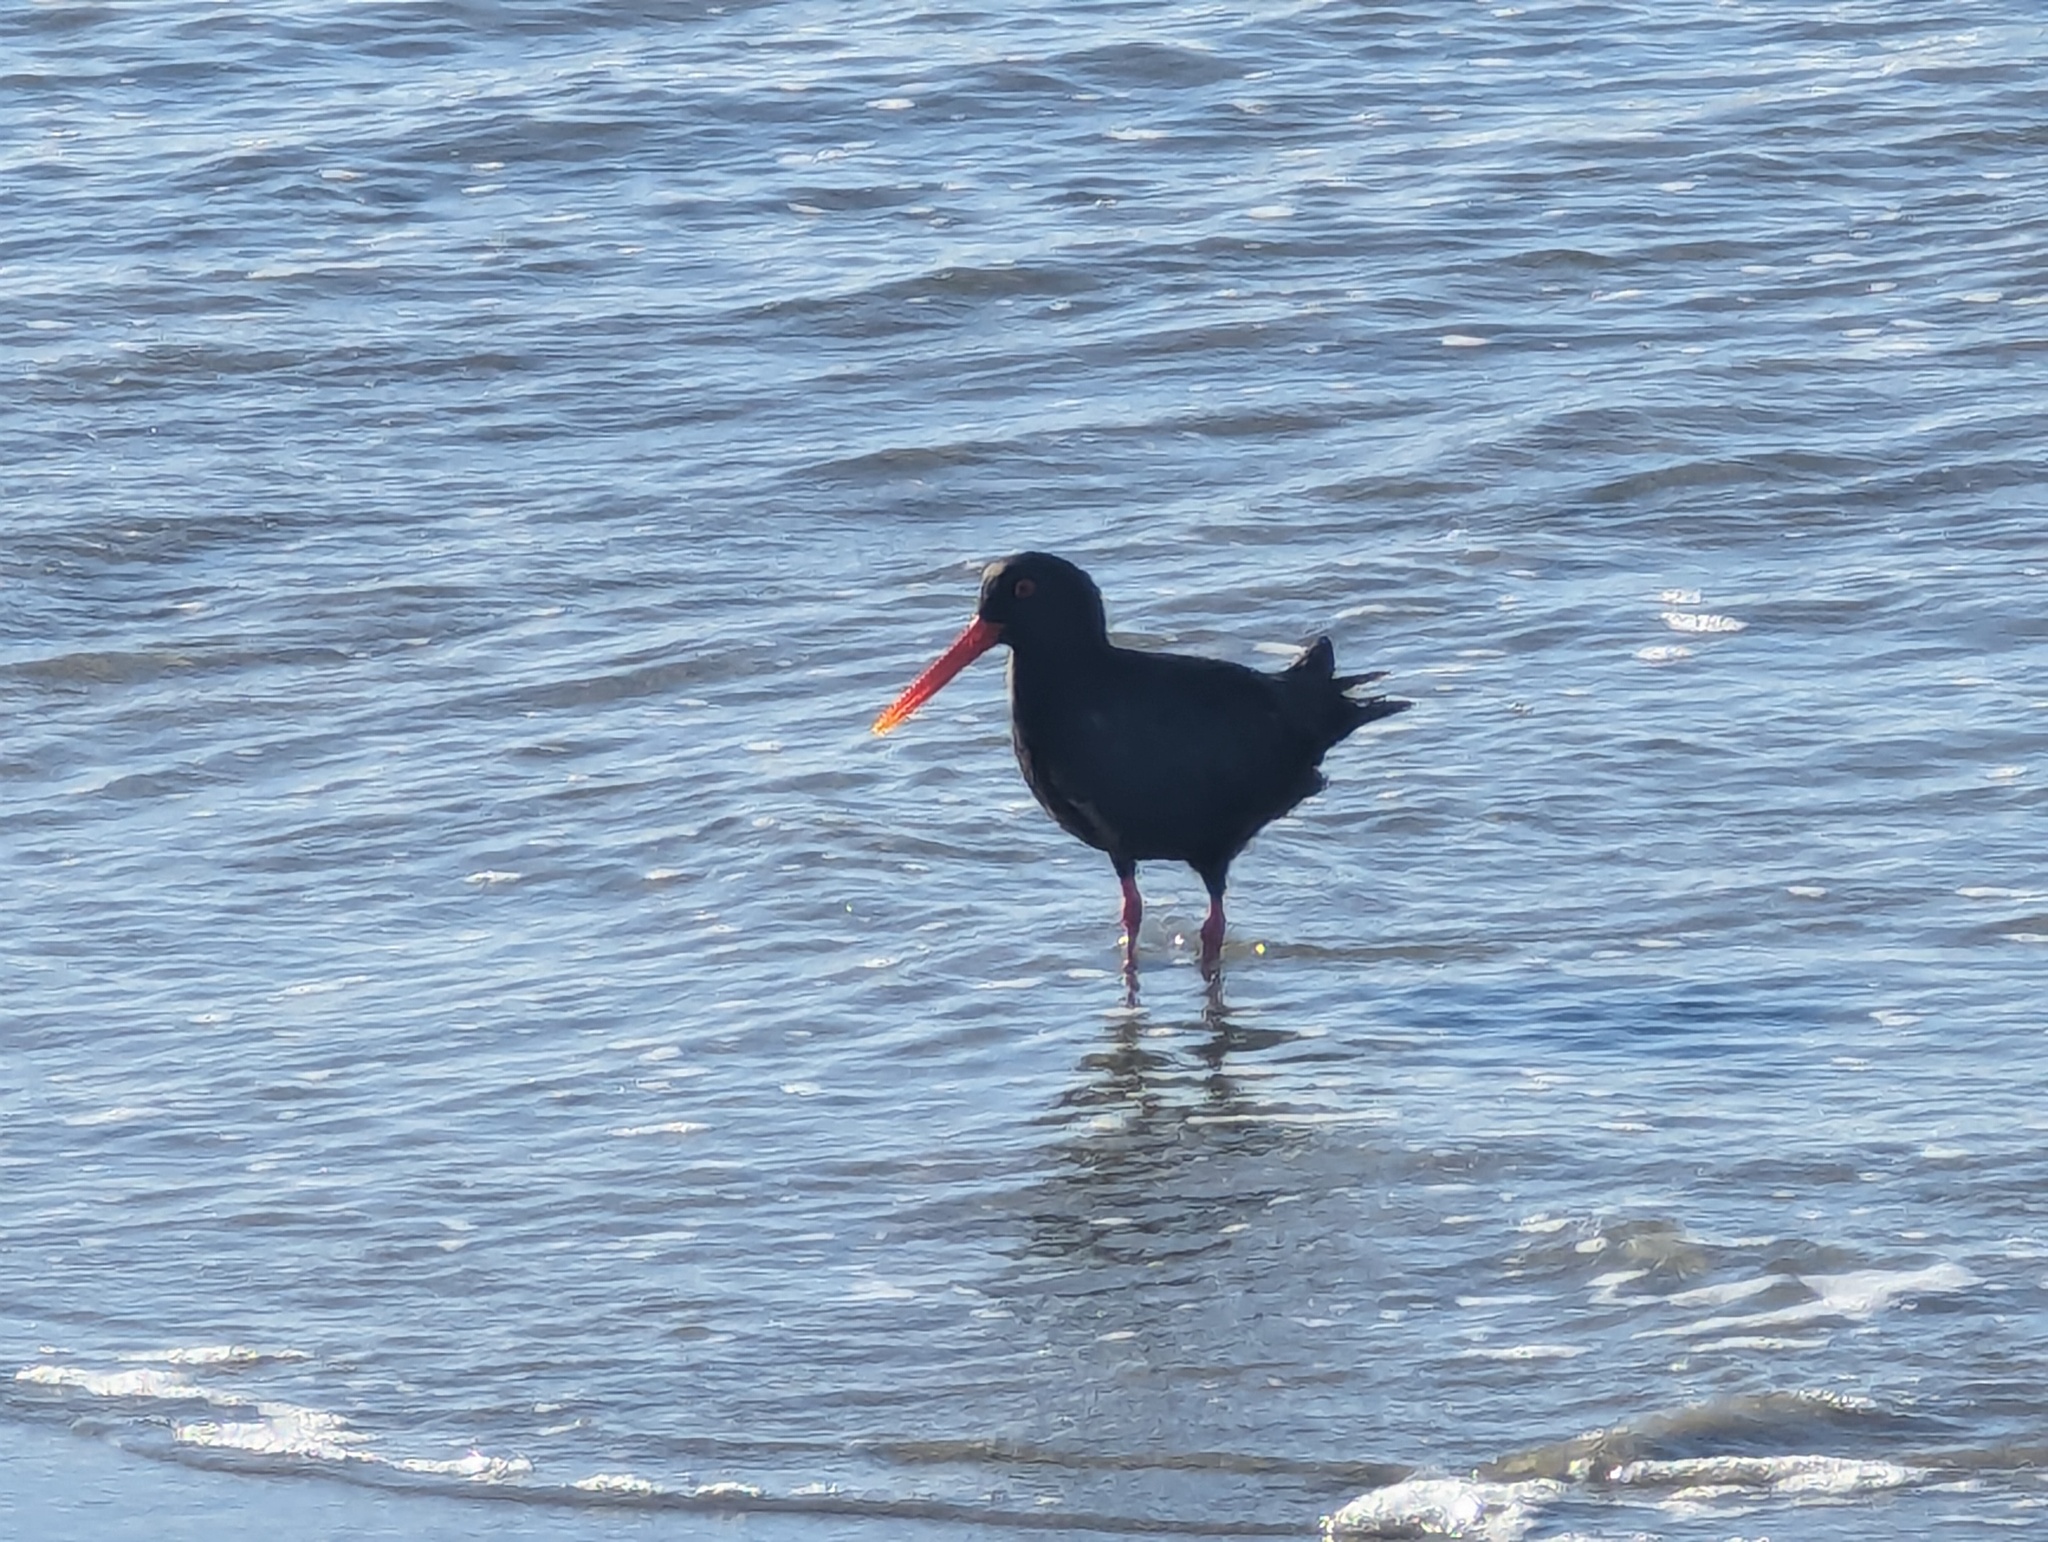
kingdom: Animalia
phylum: Chordata
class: Aves
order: Charadriiformes
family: Haematopodidae
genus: Haematopus
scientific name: Haematopus unicolor
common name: Variable oystercatcher
